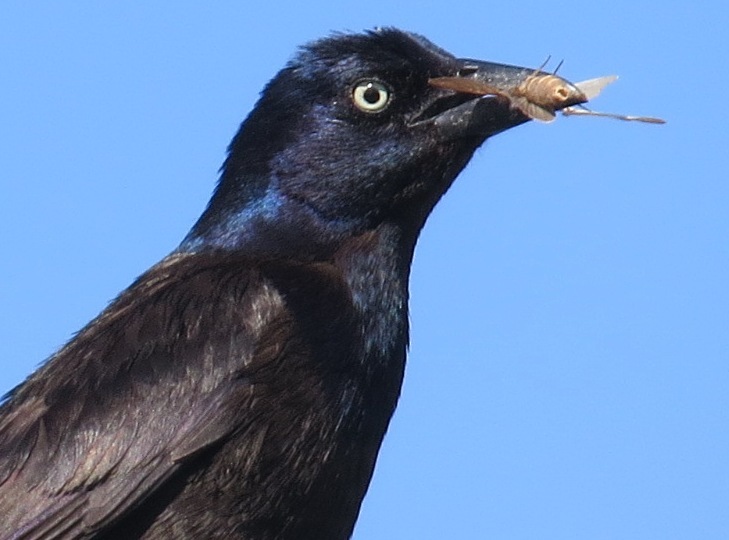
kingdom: Animalia
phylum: Chordata
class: Aves
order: Passeriformes
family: Icteridae
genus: Quiscalus
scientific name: Quiscalus quiscula
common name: Common grackle
